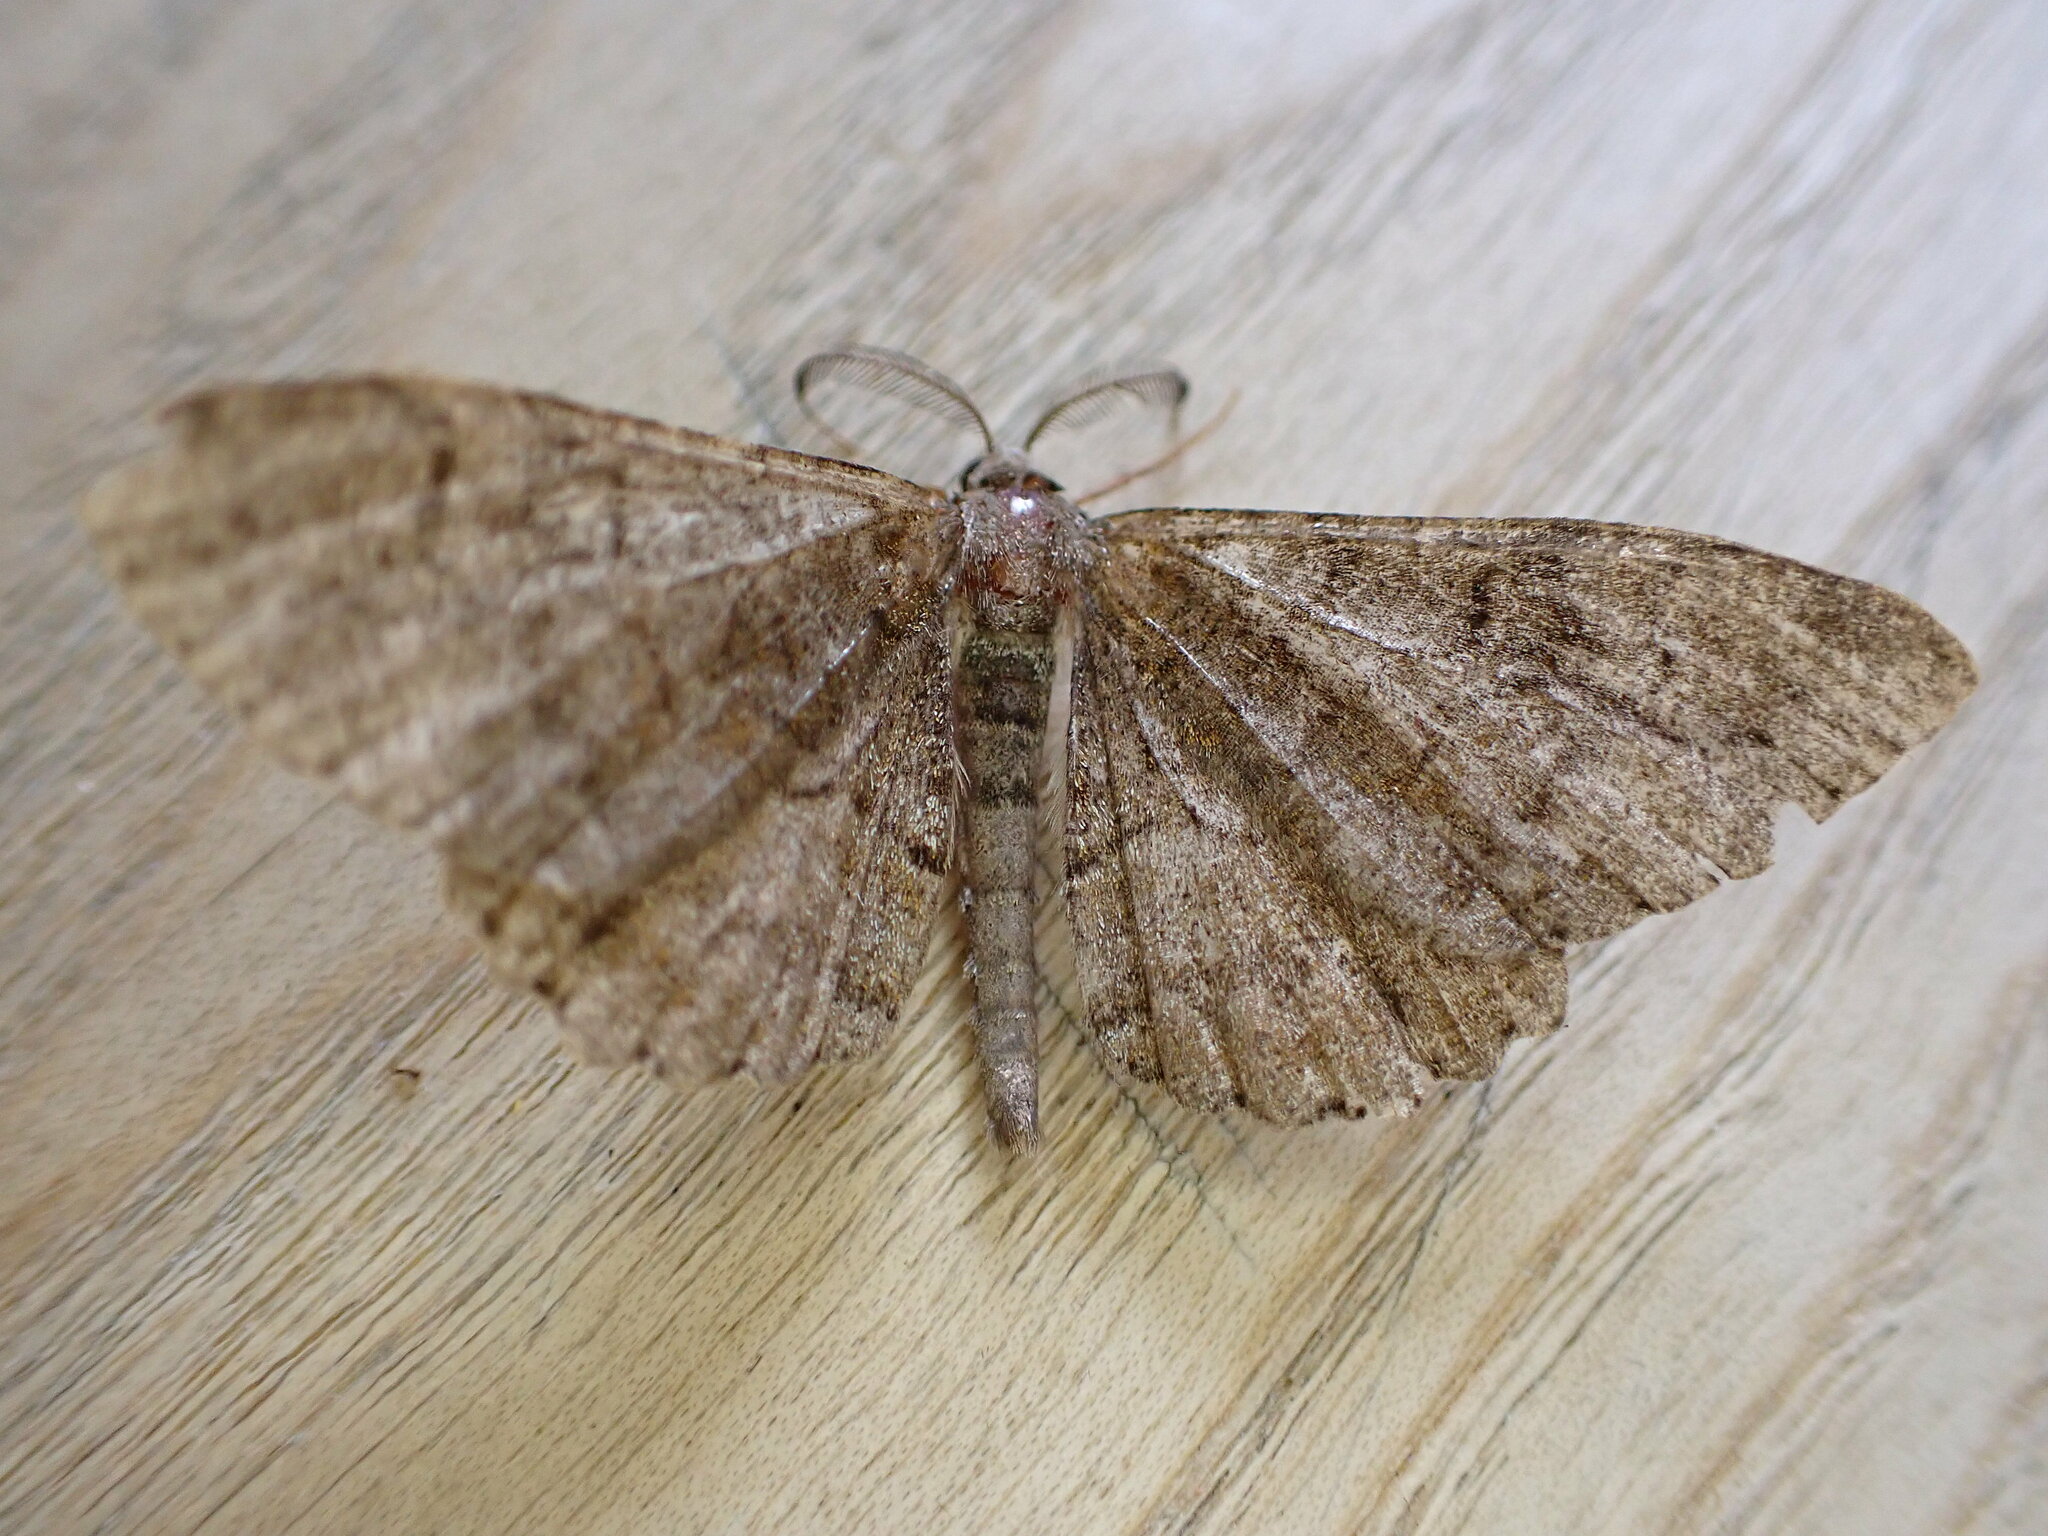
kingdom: Animalia
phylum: Arthropoda
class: Insecta
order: Lepidoptera
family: Geometridae
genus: Alcis
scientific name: Alcis repandata
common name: Mottled beauty
